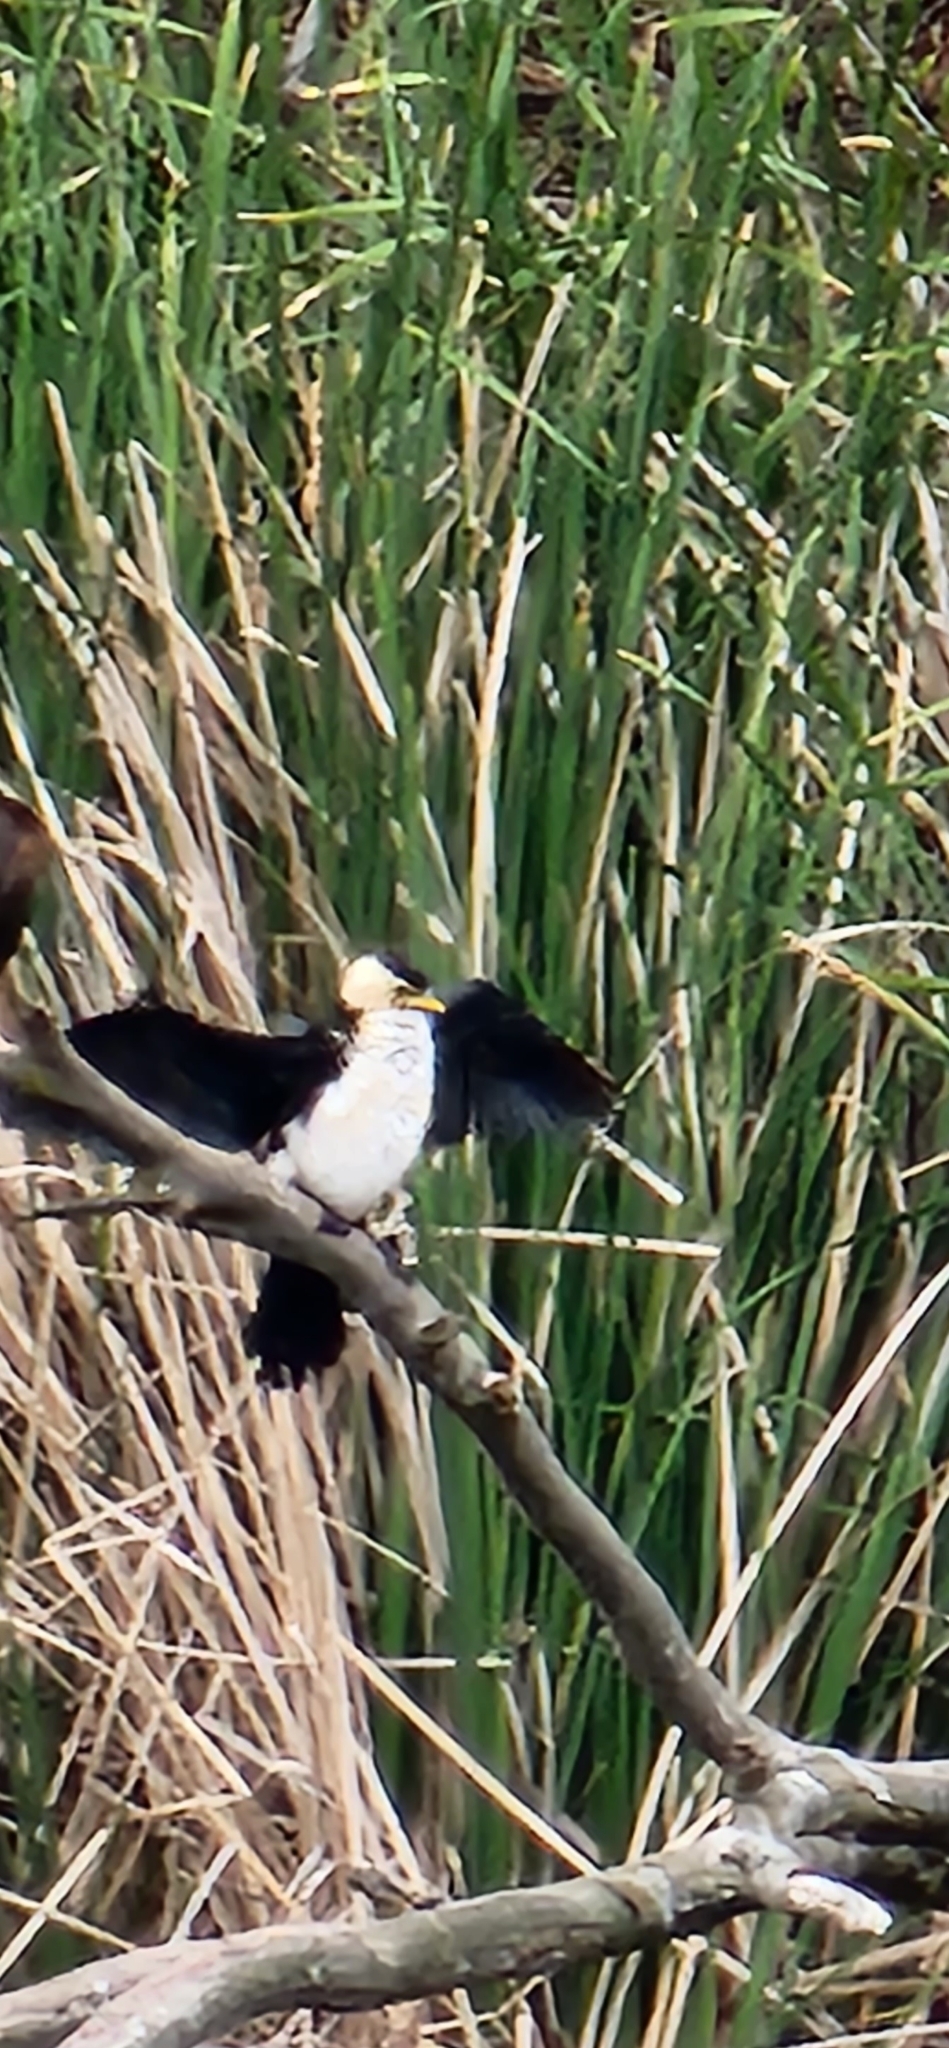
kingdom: Animalia
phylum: Chordata
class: Aves
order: Suliformes
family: Phalacrocoracidae
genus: Microcarbo
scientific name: Microcarbo melanoleucos
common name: Little pied cormorant
